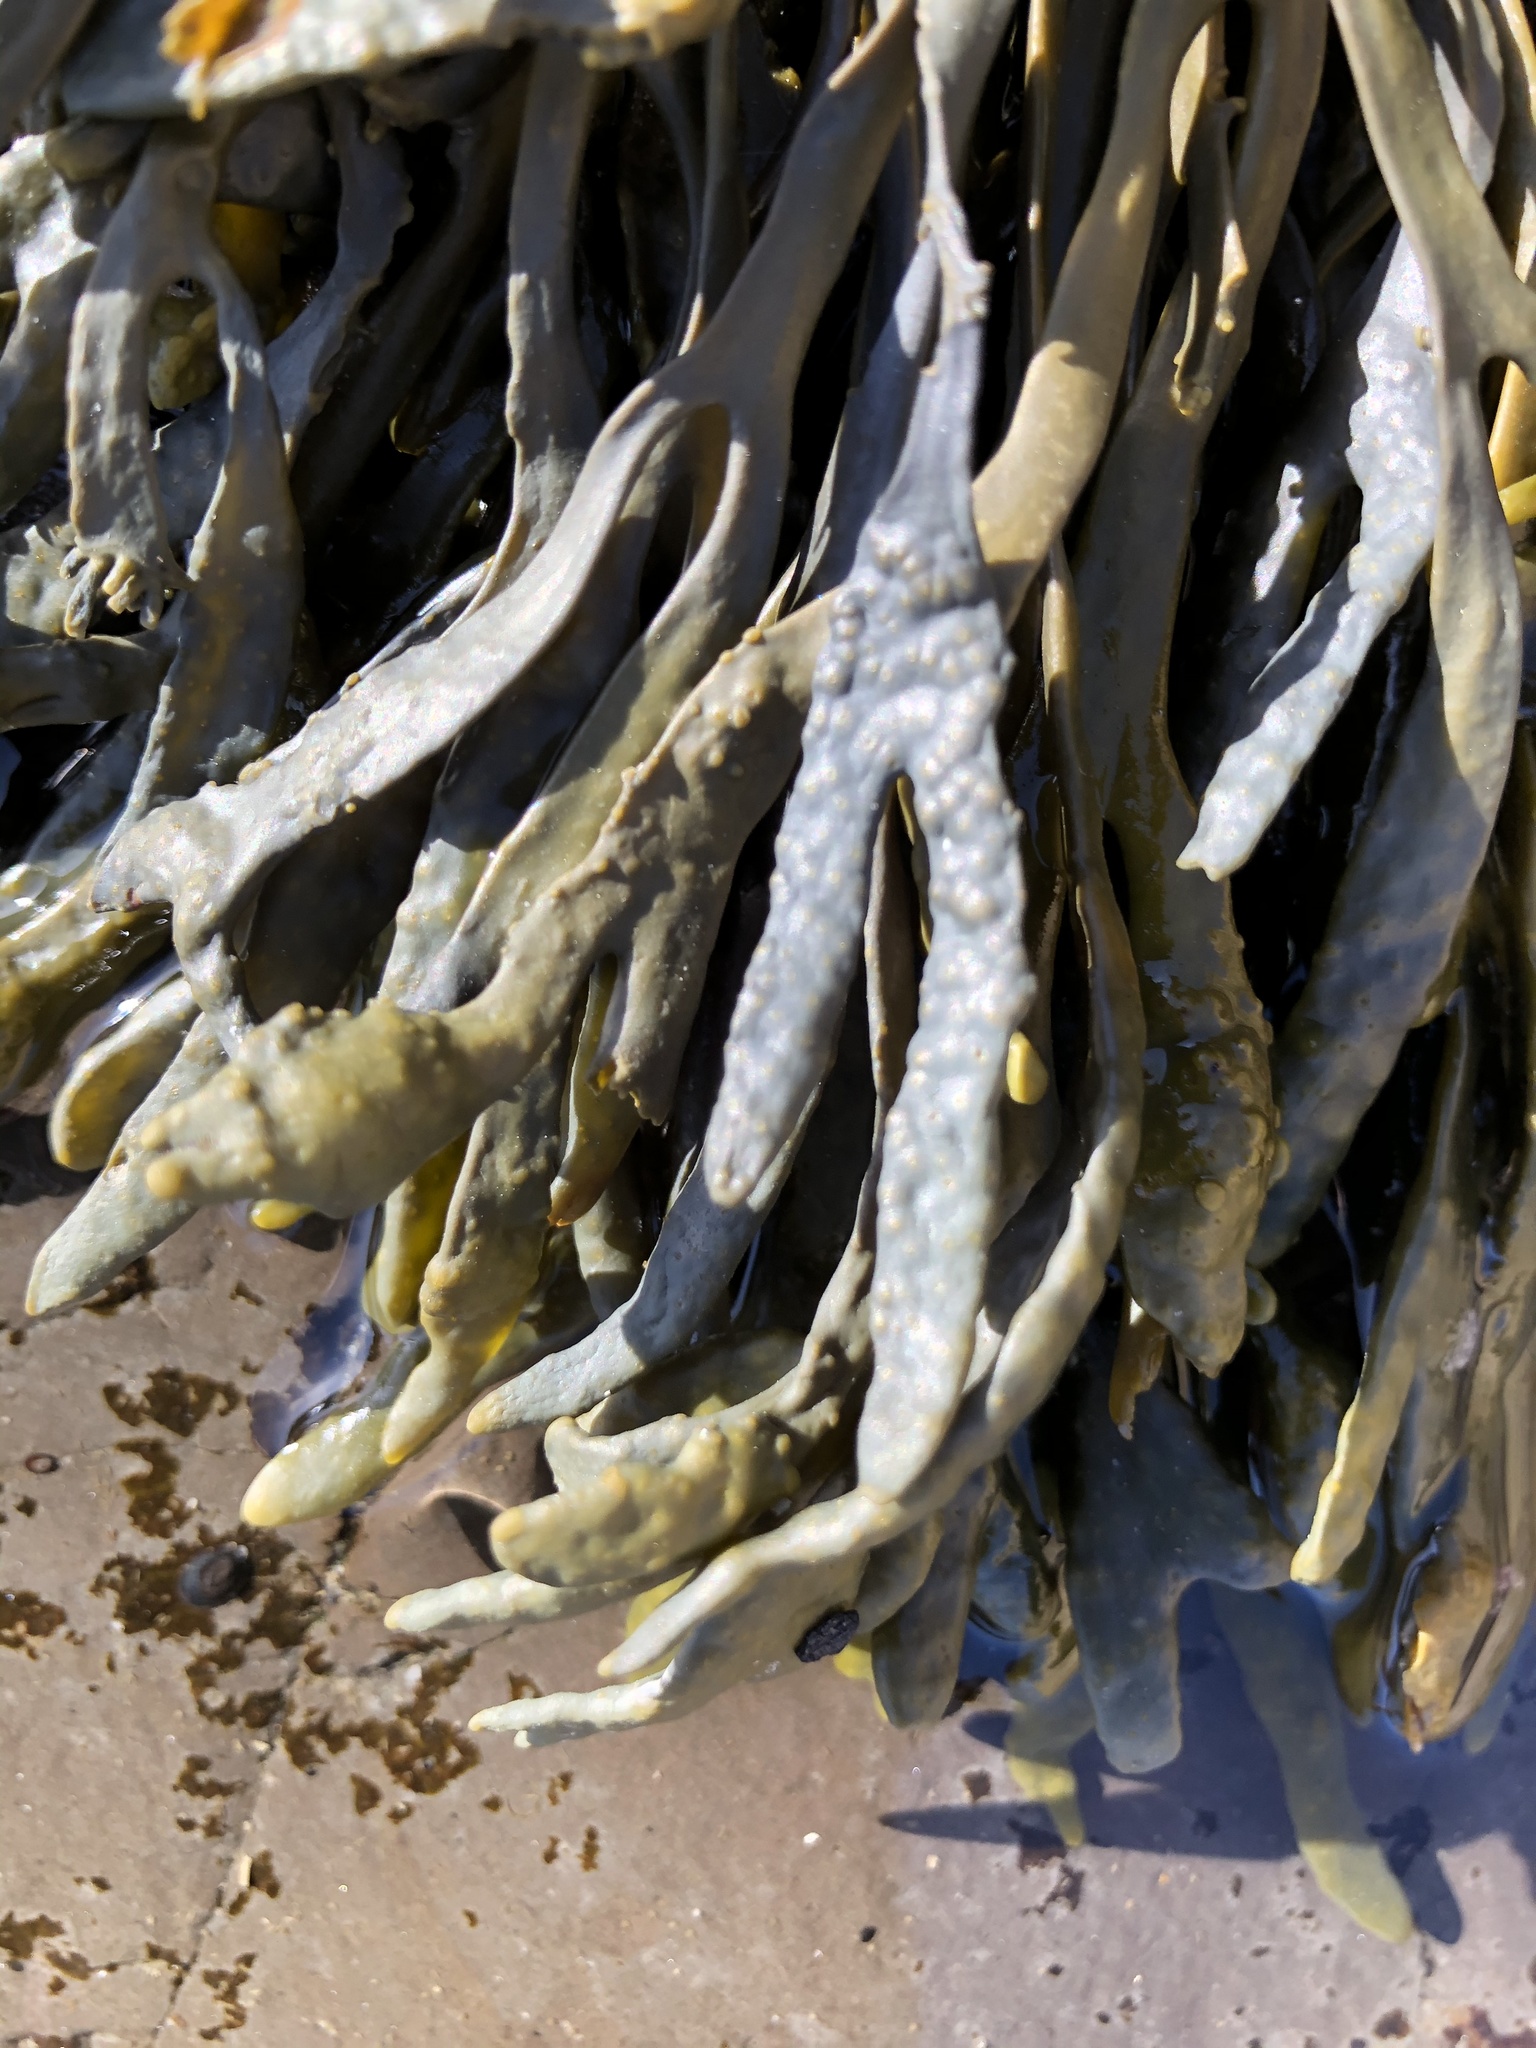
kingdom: Chromista
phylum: Ochrophyta
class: Phaeophyceae
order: Fucales
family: Fucaceae
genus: Silvetia
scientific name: Silvetia
